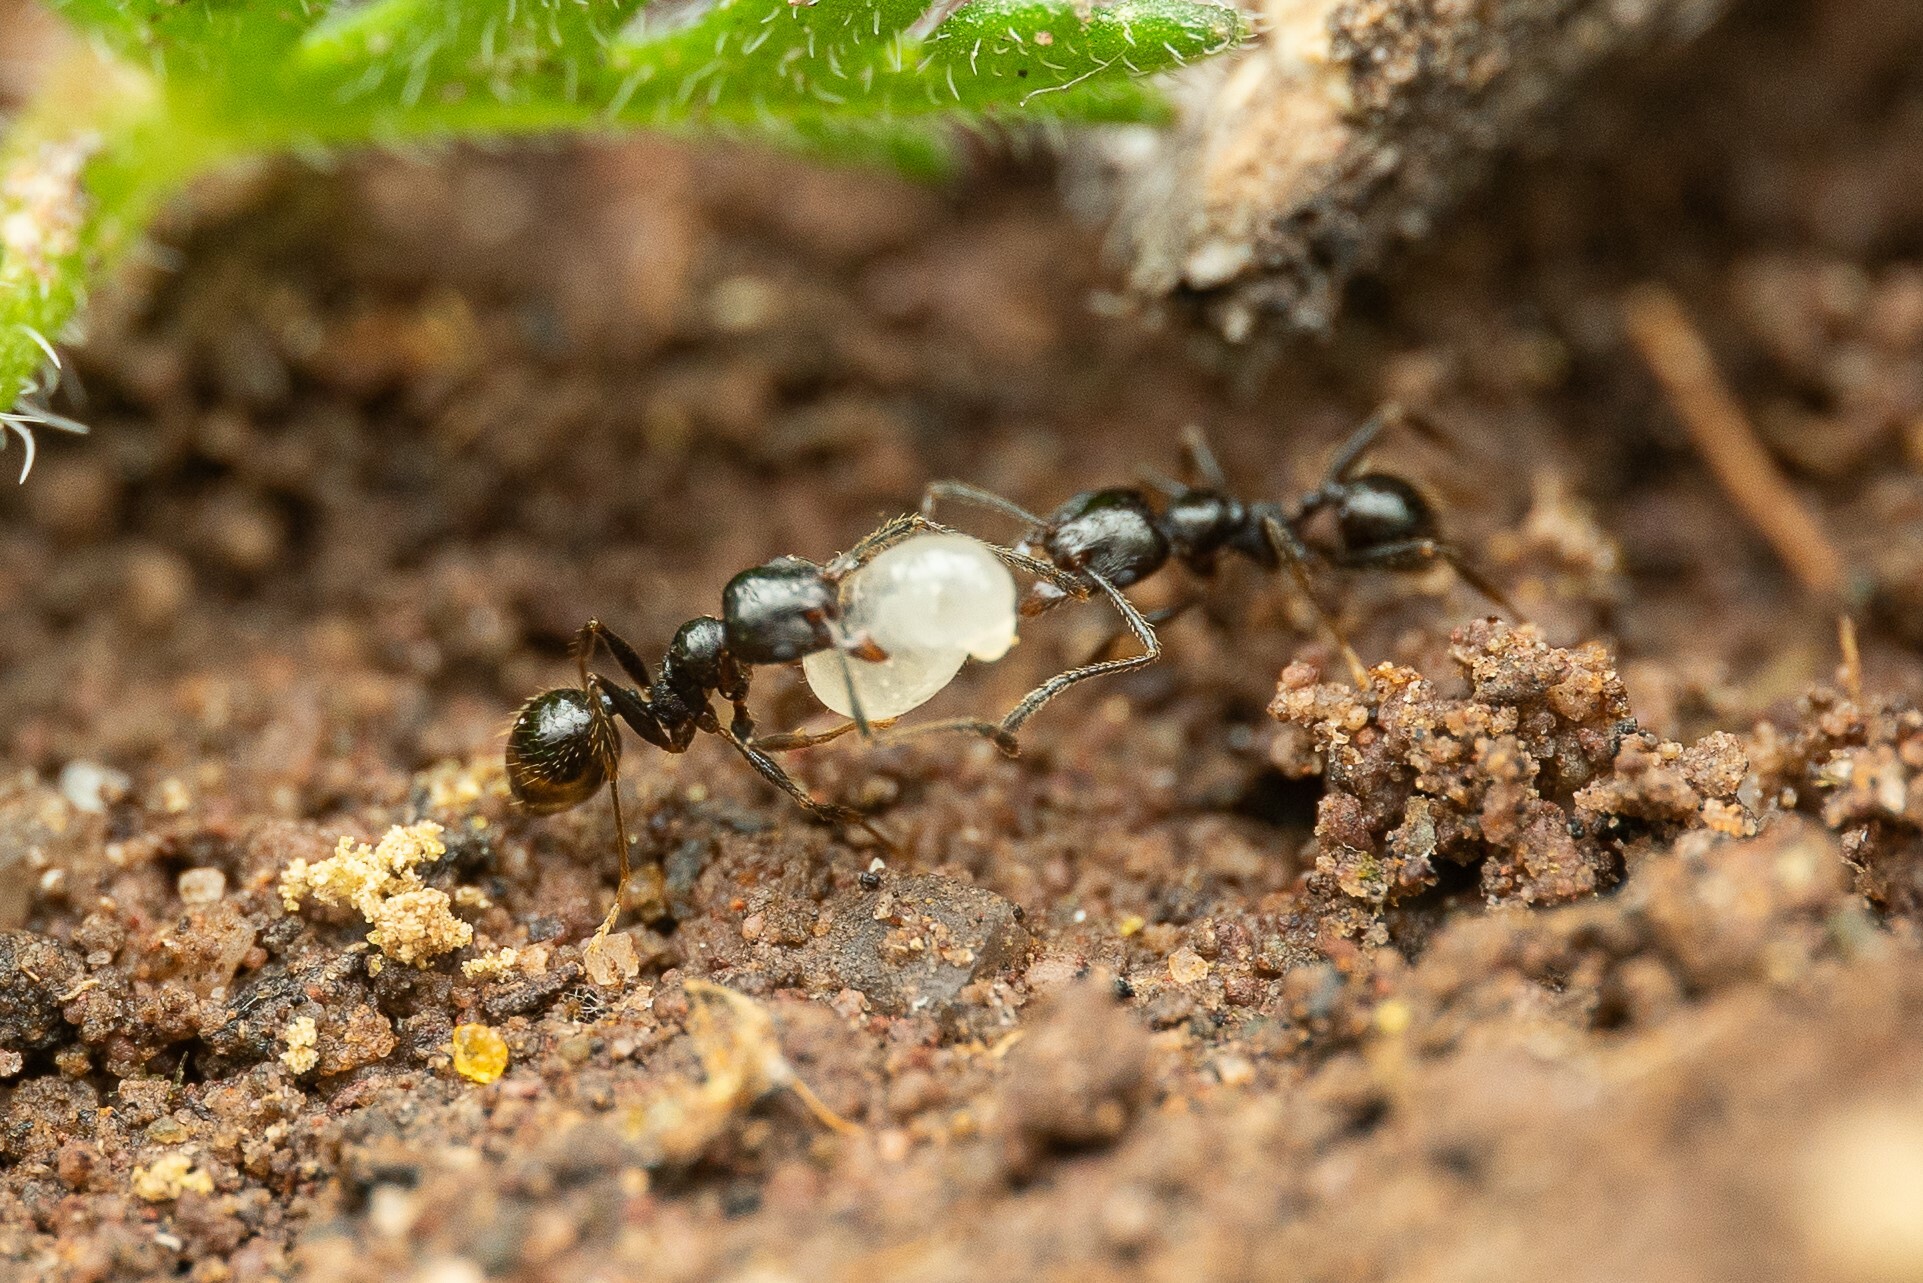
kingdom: Animalia
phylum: Arthropoda
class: Insecta
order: Hymenoptera
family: Formicidae
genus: Pheidole
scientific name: Pheidole
